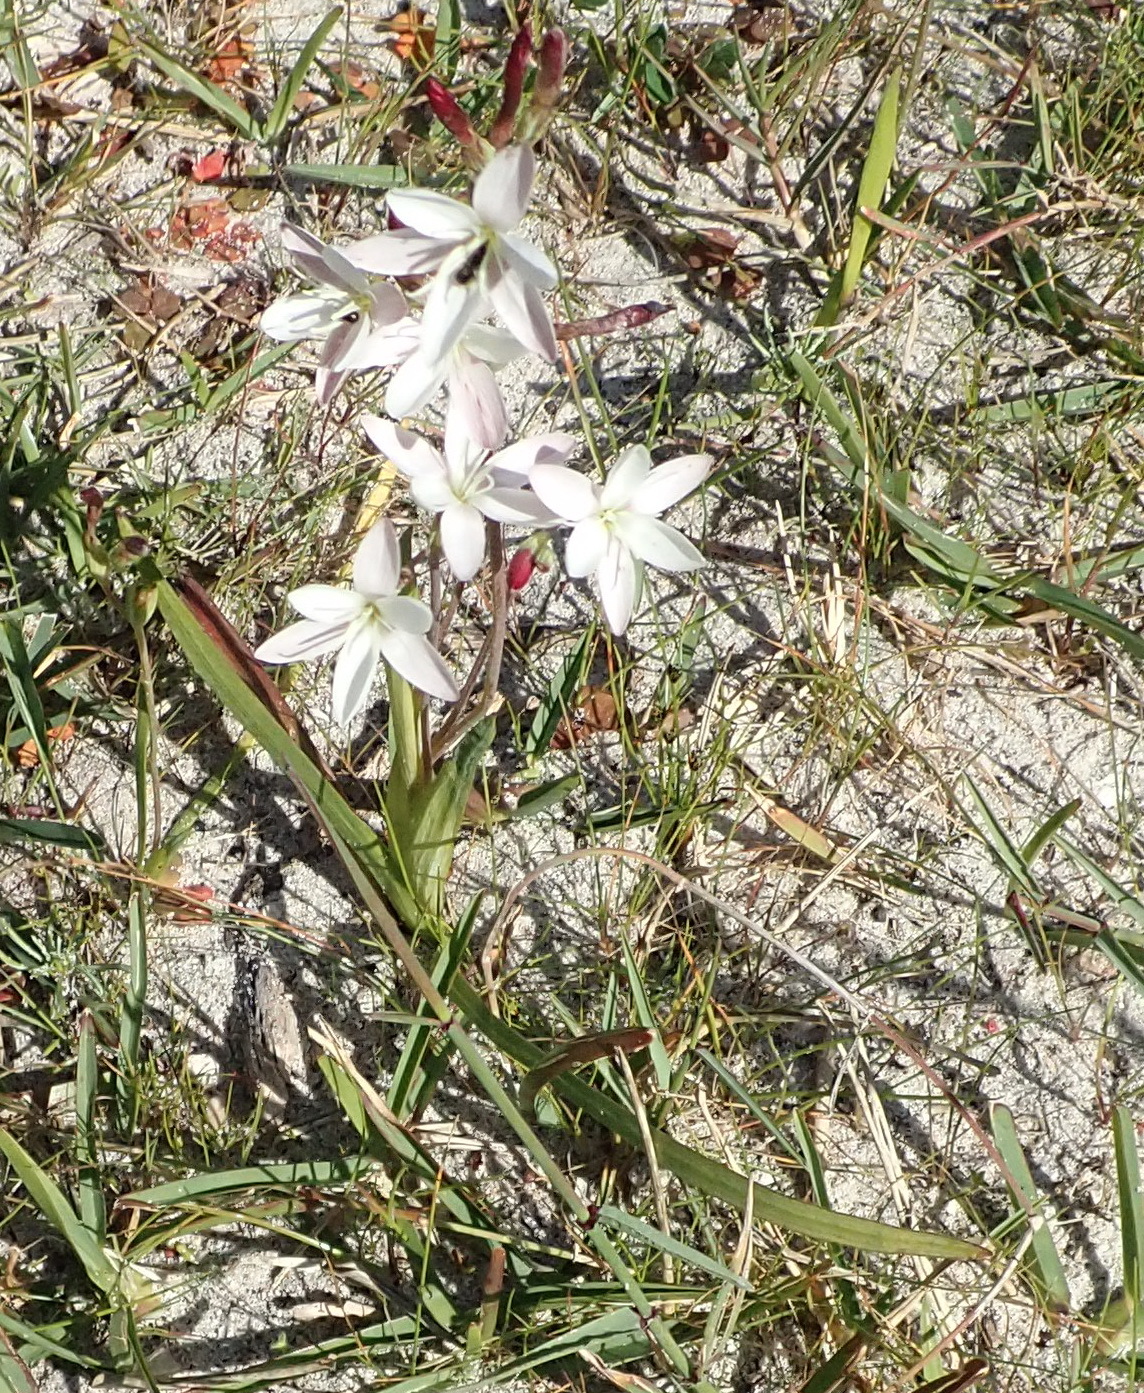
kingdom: Plantae
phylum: Tracheophyta
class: Liliopsida
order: Asparagales
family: Iridaceae
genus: Hesperantha
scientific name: Hesperantha falcata
